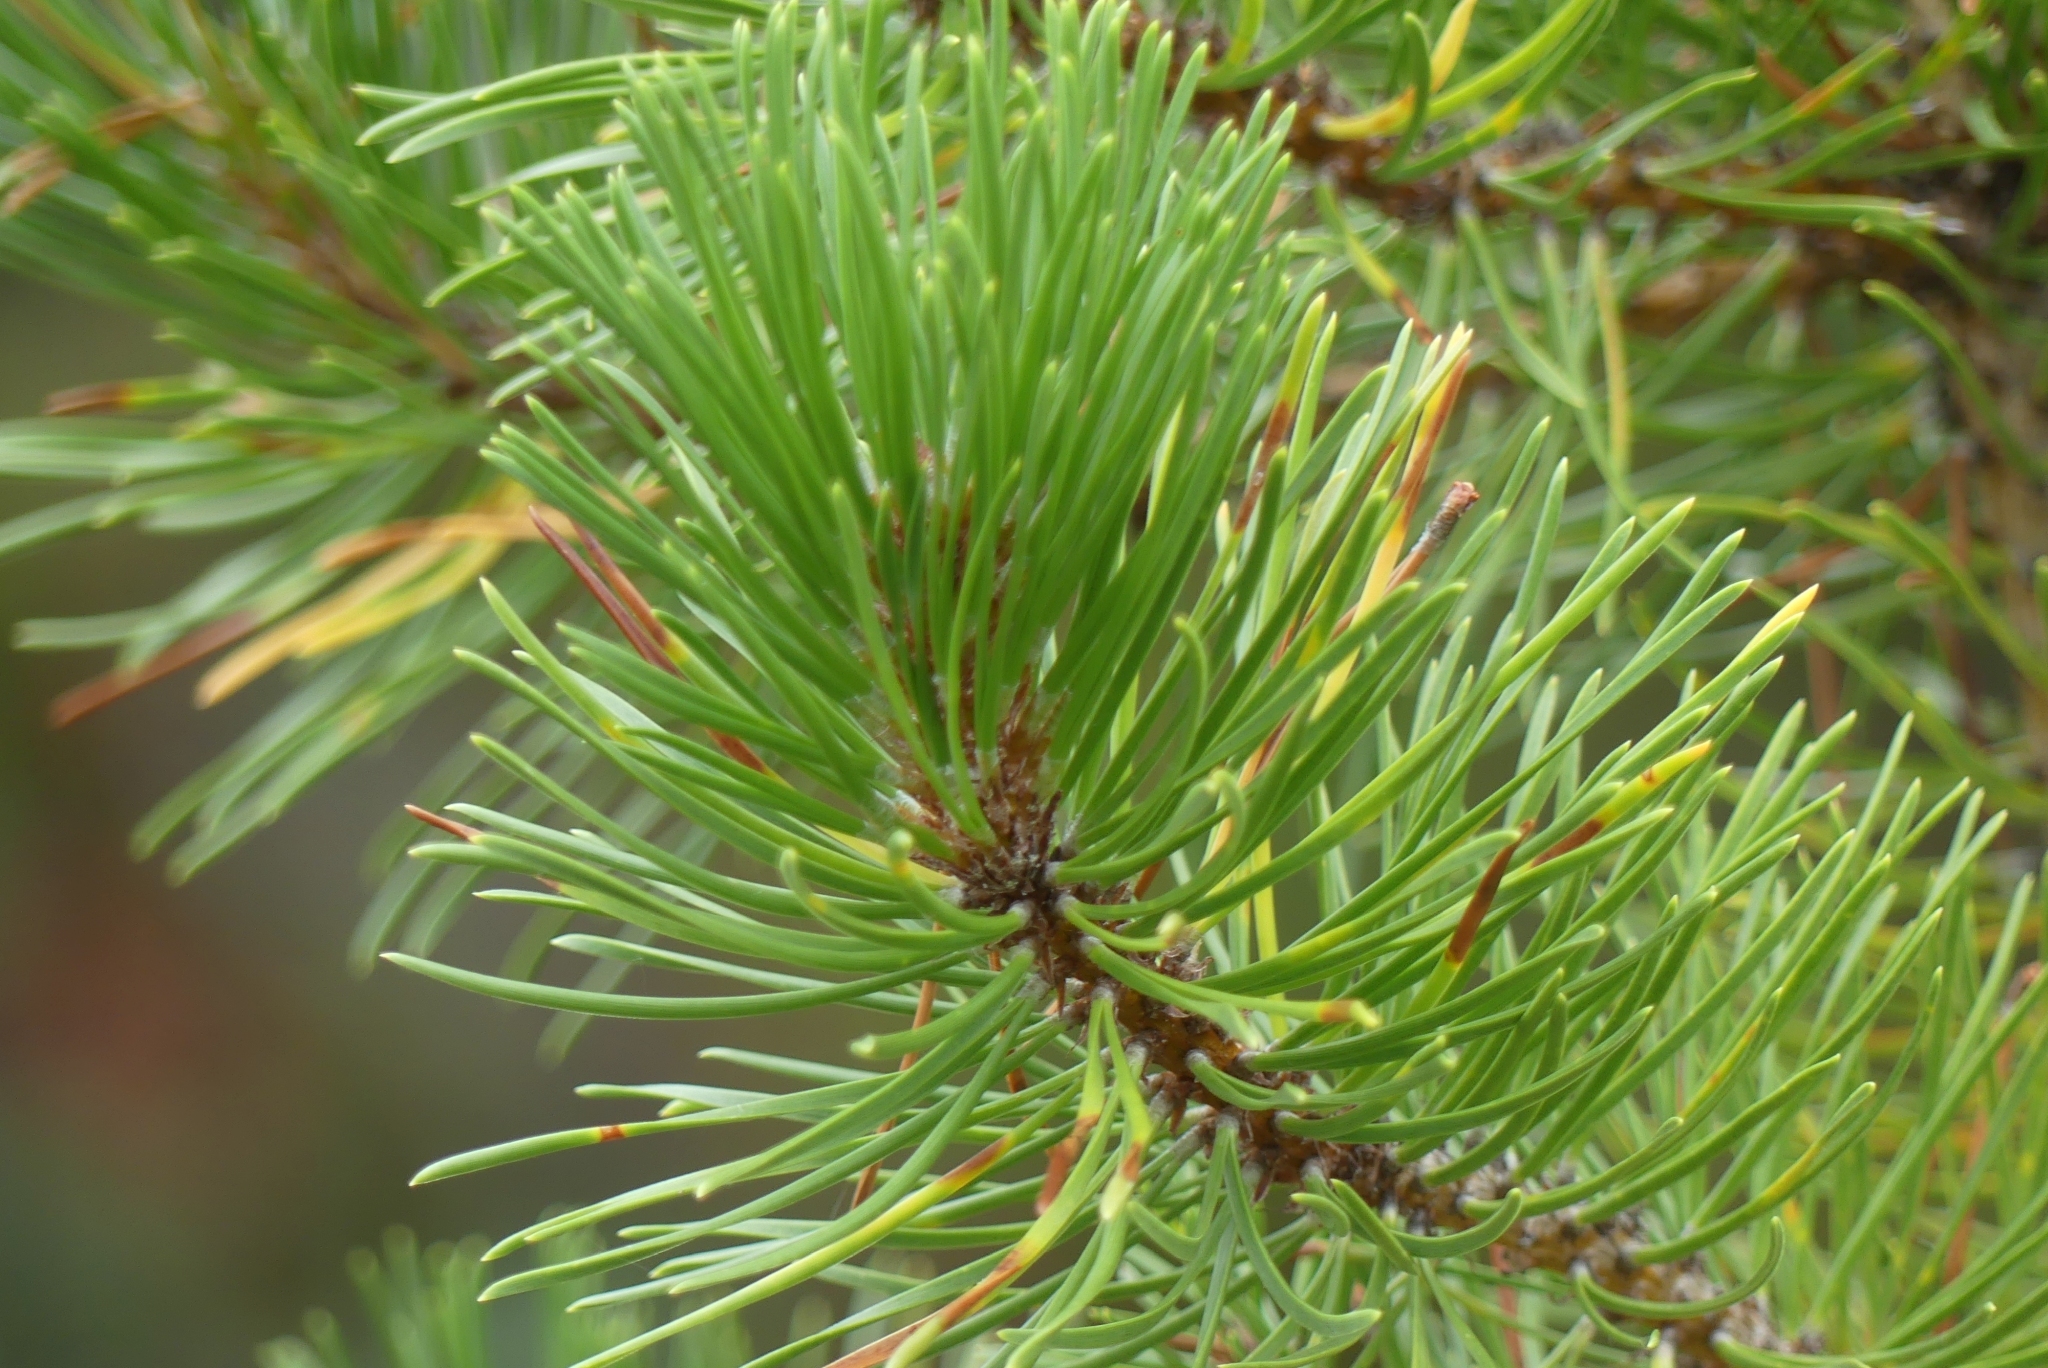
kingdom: Plantae
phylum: Tracheophyta
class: Pinopsida
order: Pinales
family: Pinaceae
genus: Pinus
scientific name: Pinus contorta
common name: Lodgepole pine
